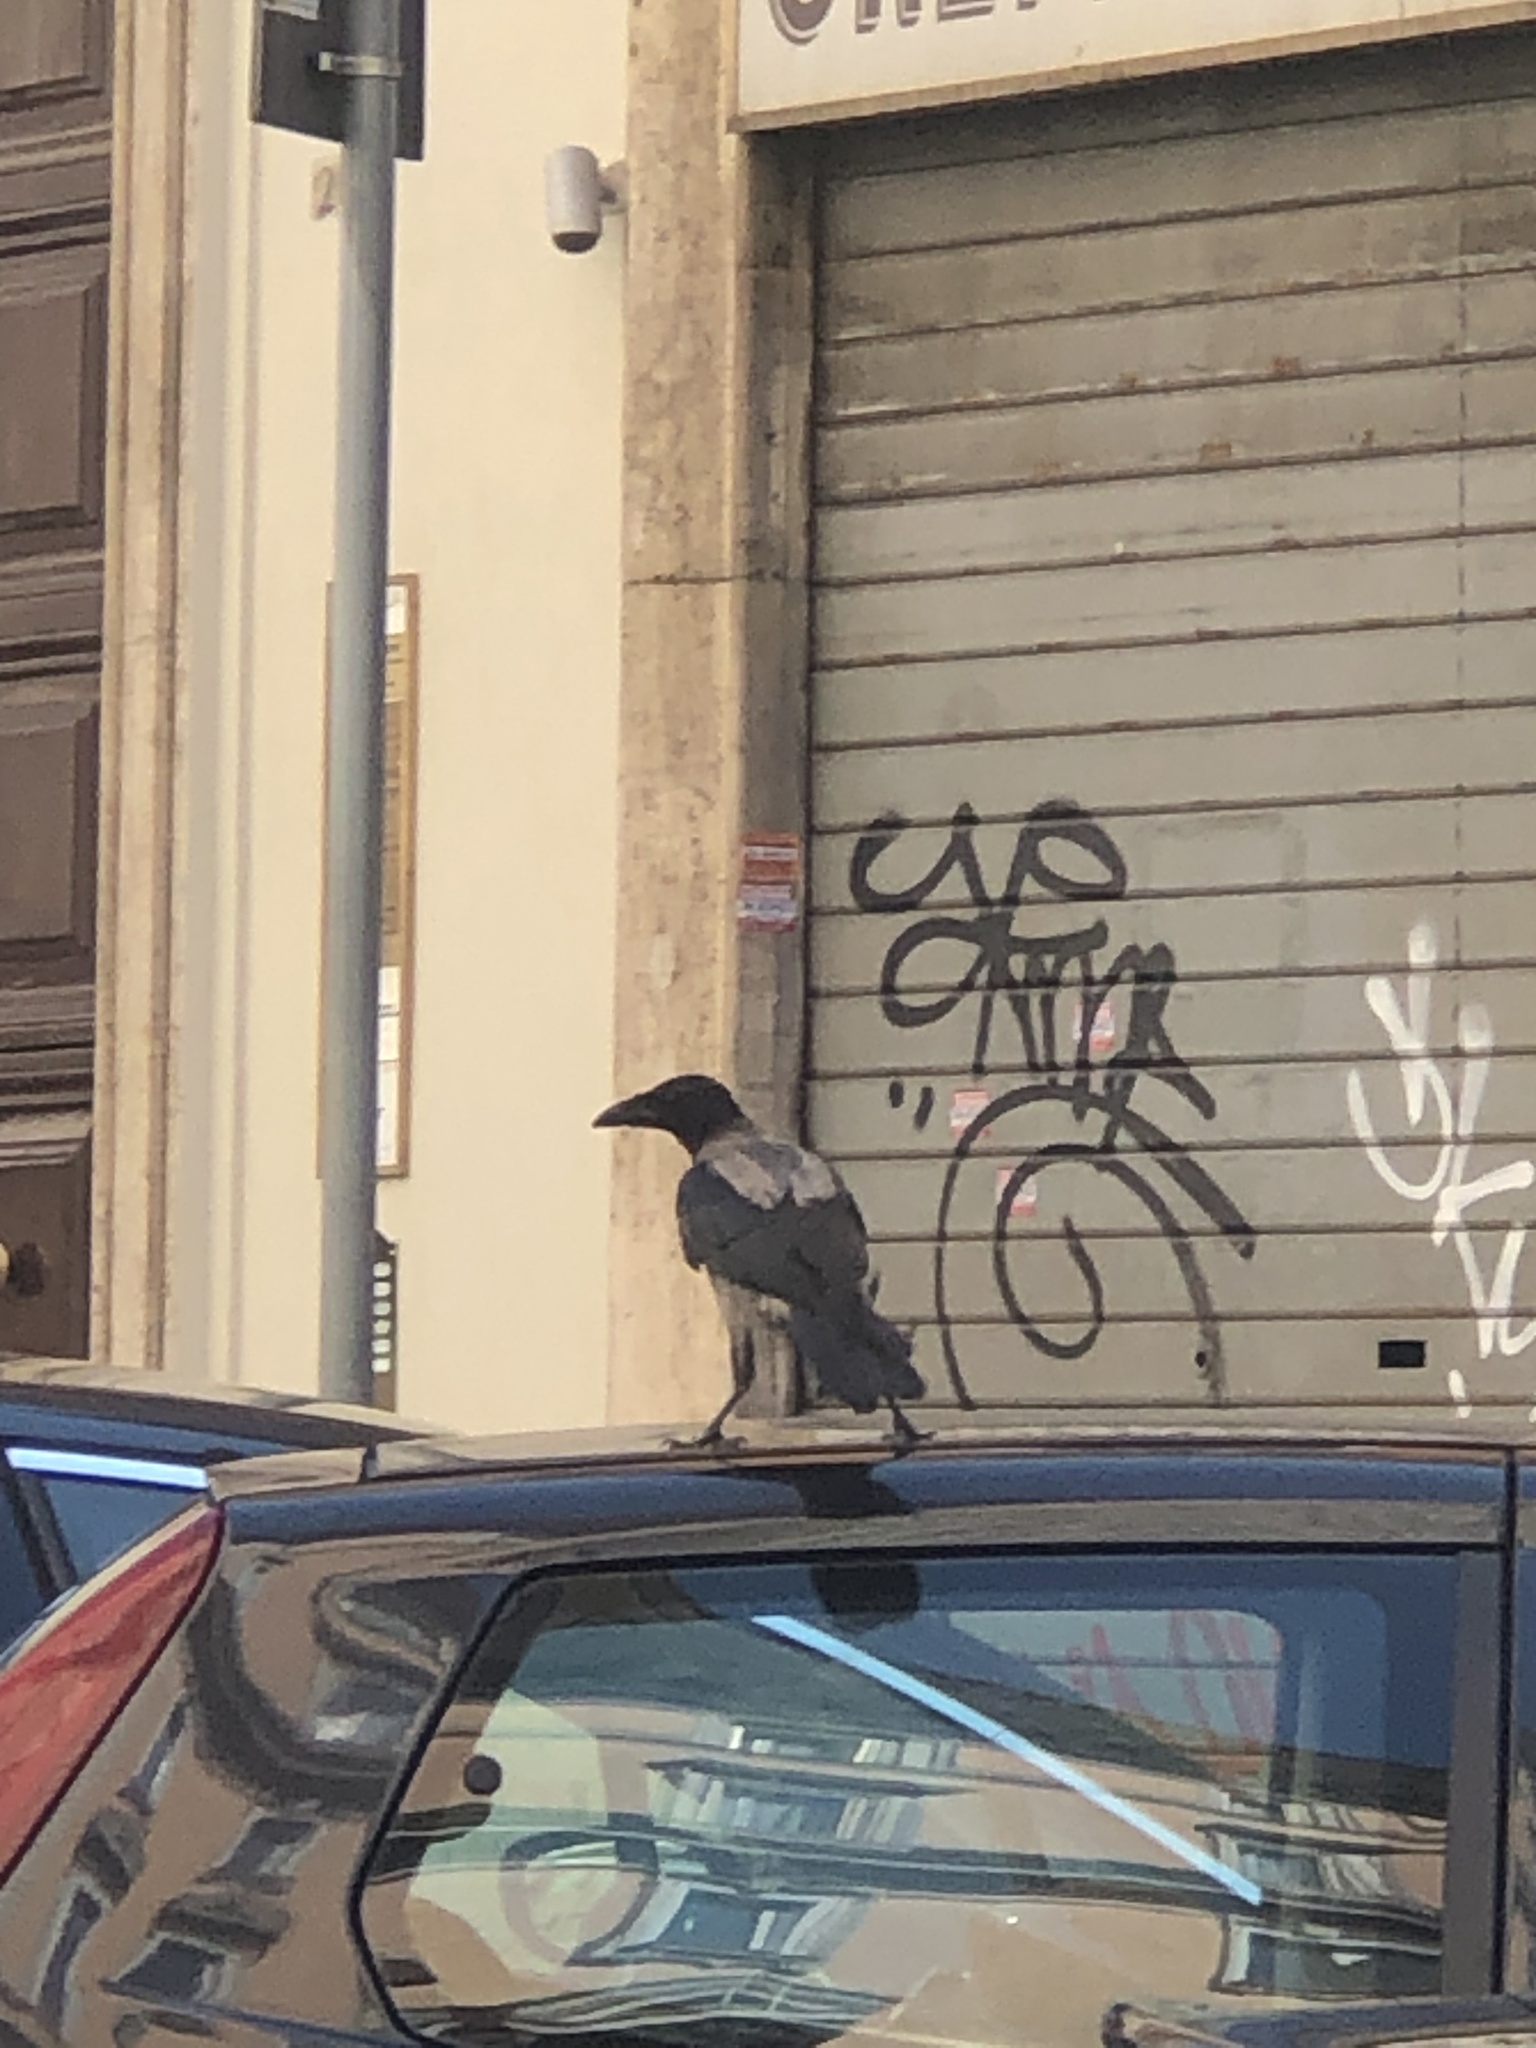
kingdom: Animalia
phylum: Chordata
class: Aves
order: Passeriformes
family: Corvidae
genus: Corvus
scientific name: Corvus cornix
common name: Hooded crow
